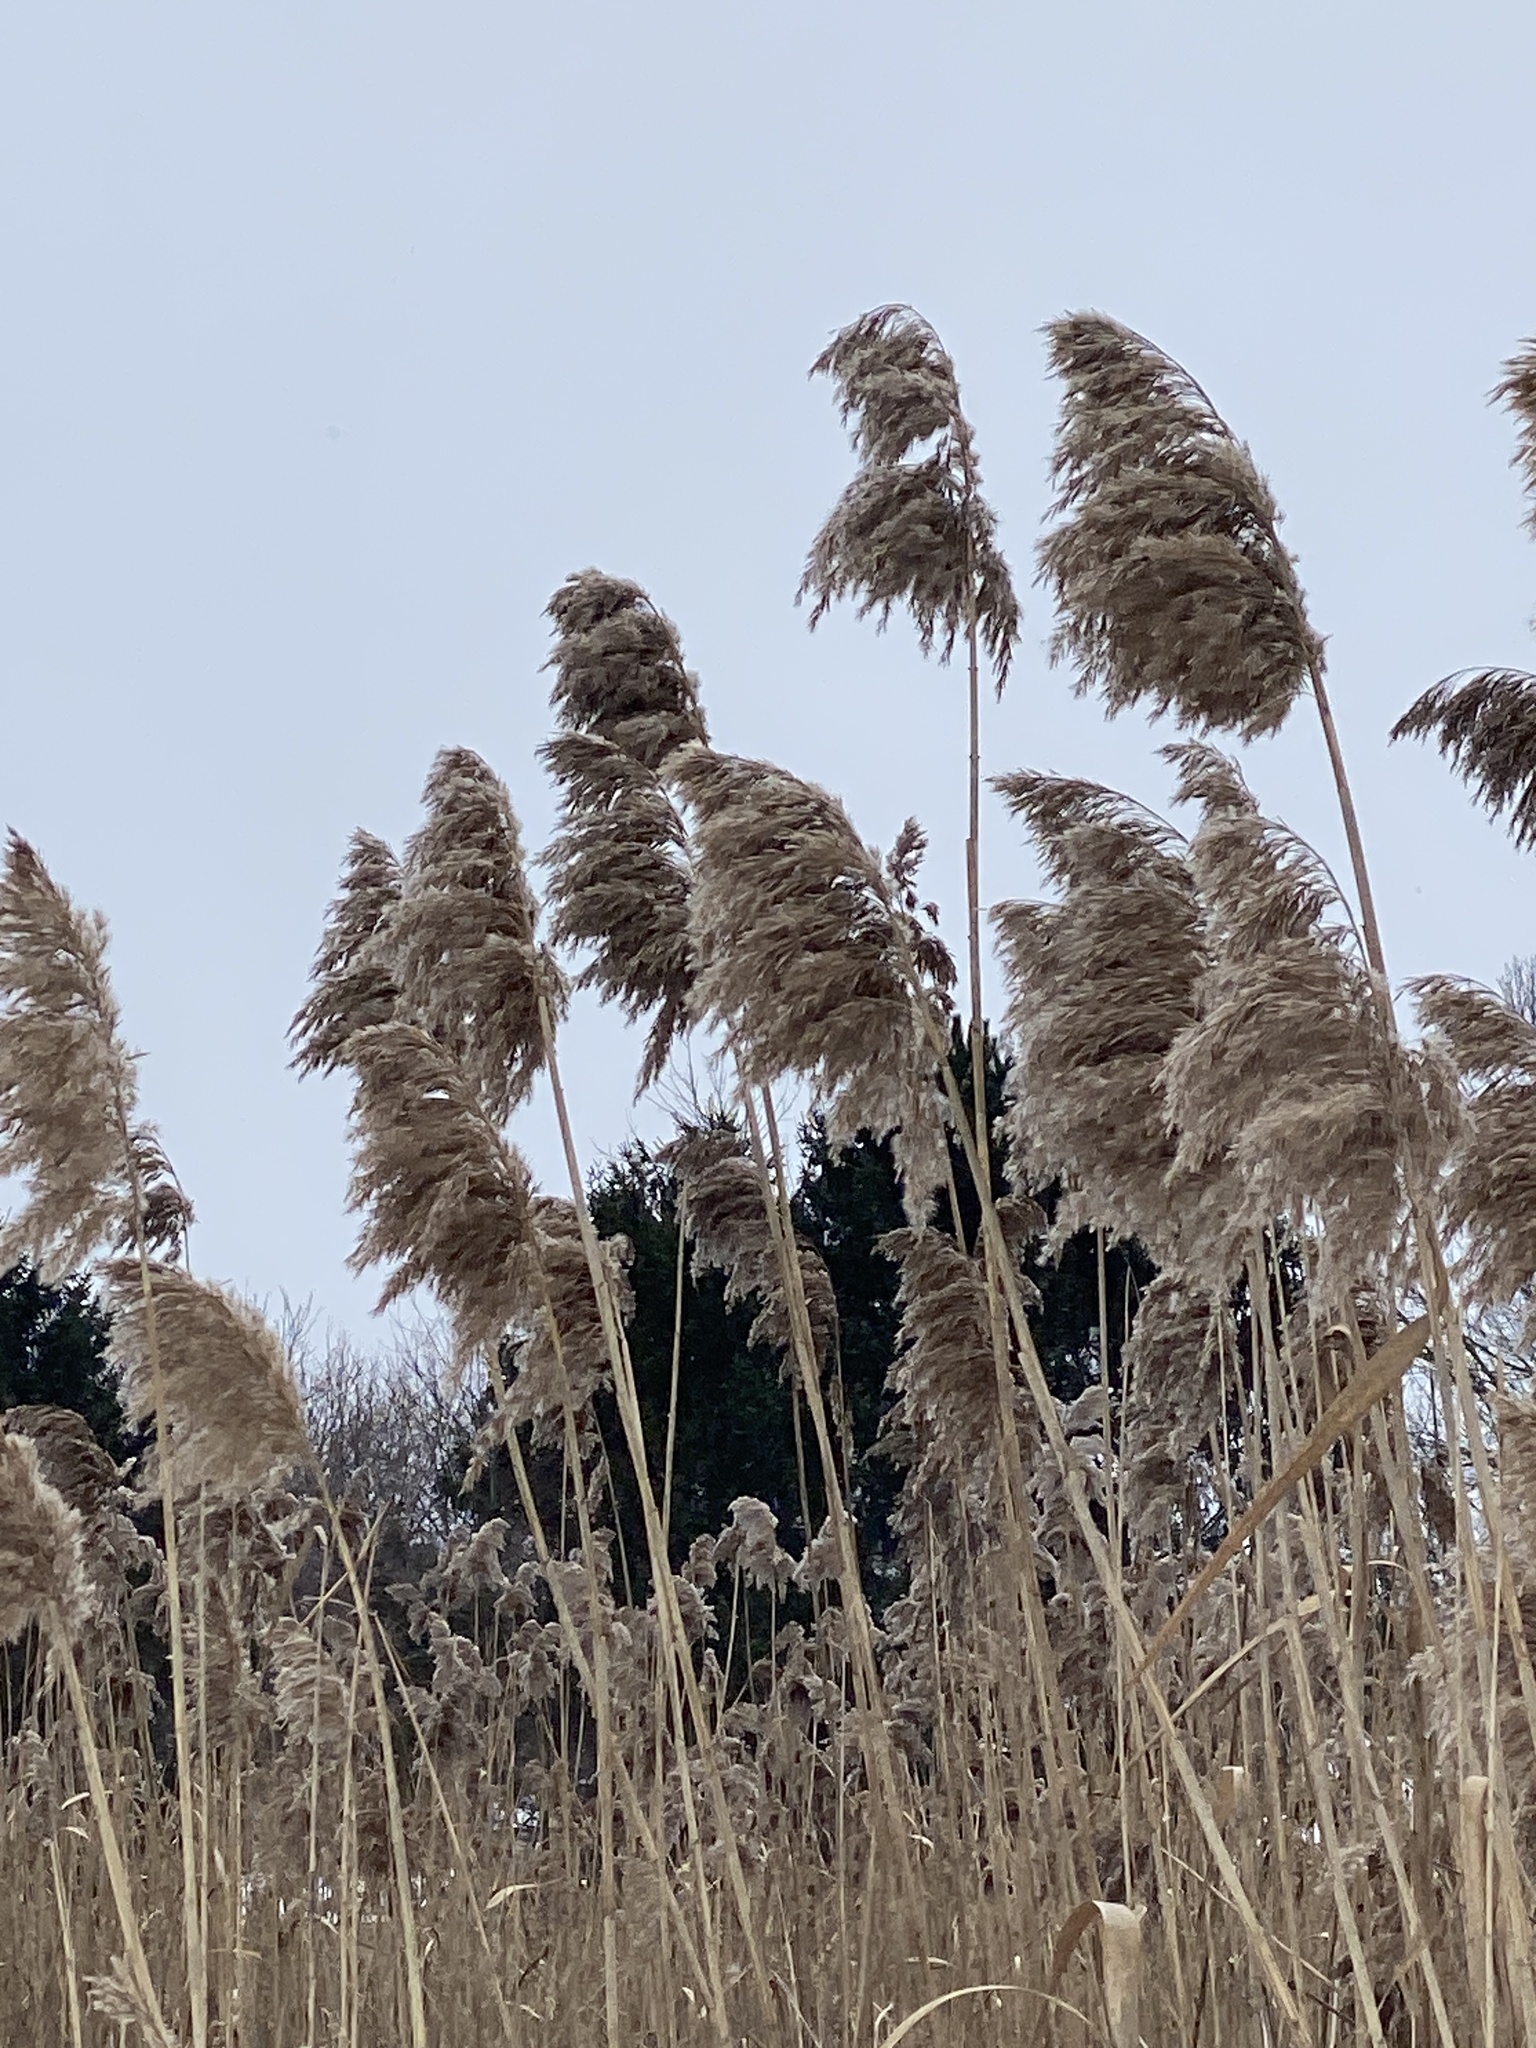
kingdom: Plantae
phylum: Tracheophyta
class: Liliopsida
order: Poales
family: Poaceae
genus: Phragmites
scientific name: Phragmites australis
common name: Common reed
